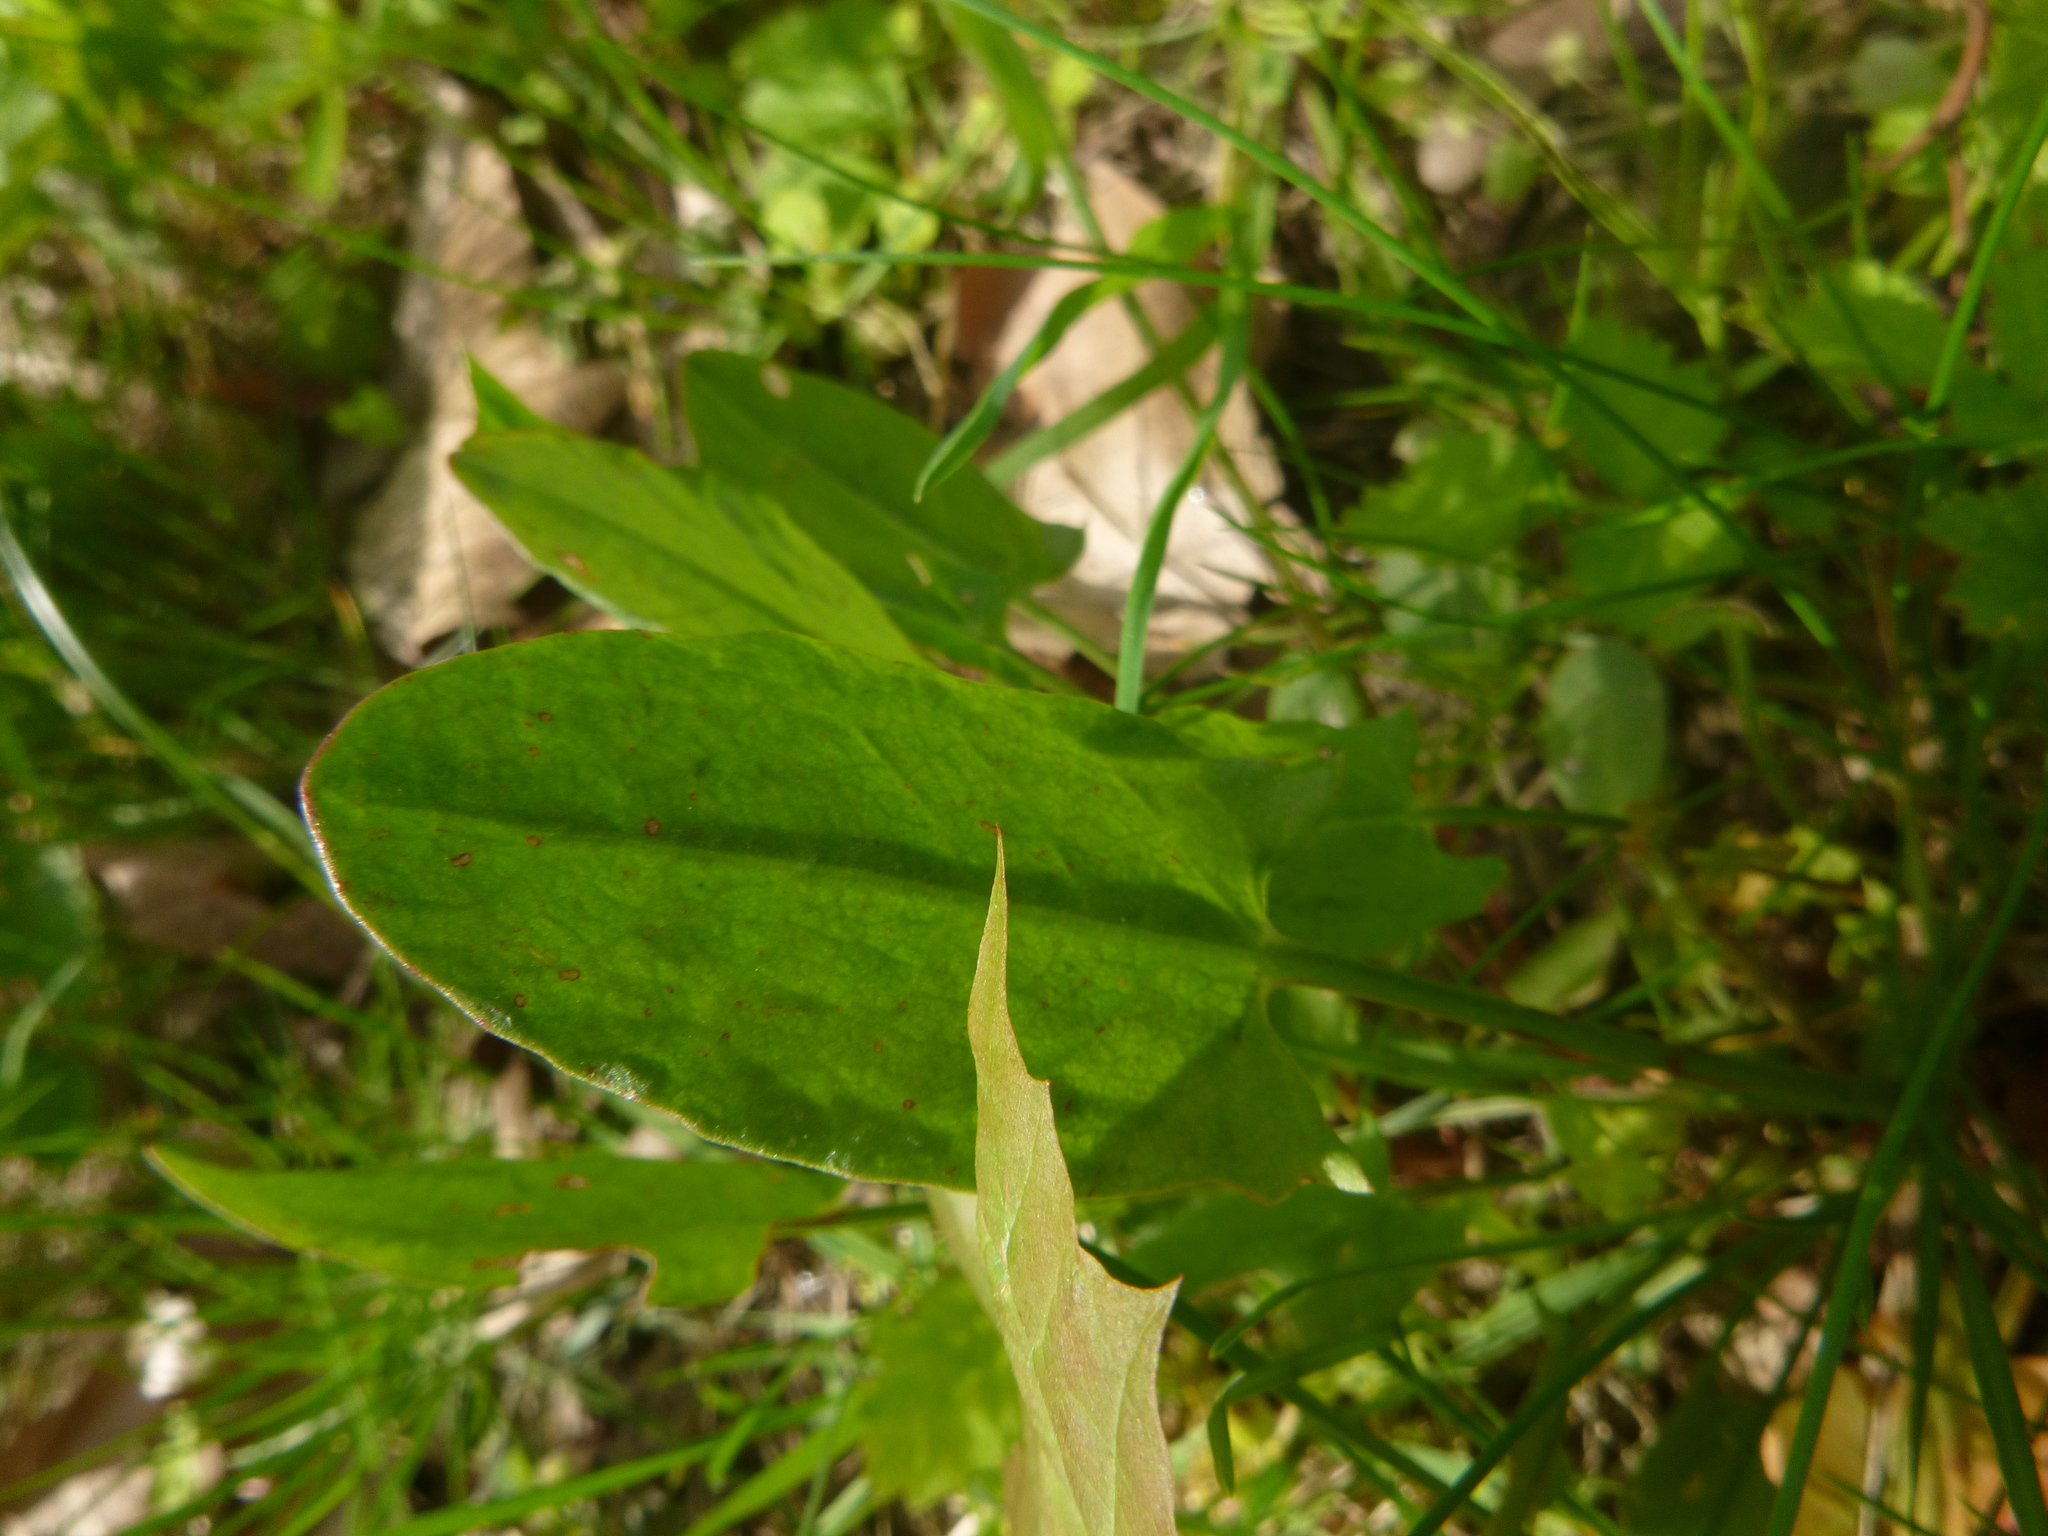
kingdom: Plantae
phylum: Tracheophyta
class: Magnoliopsida
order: Caryophyllales
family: Polygonaceae
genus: Rumex
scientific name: Rumex acetosa
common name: Garden sorrel
